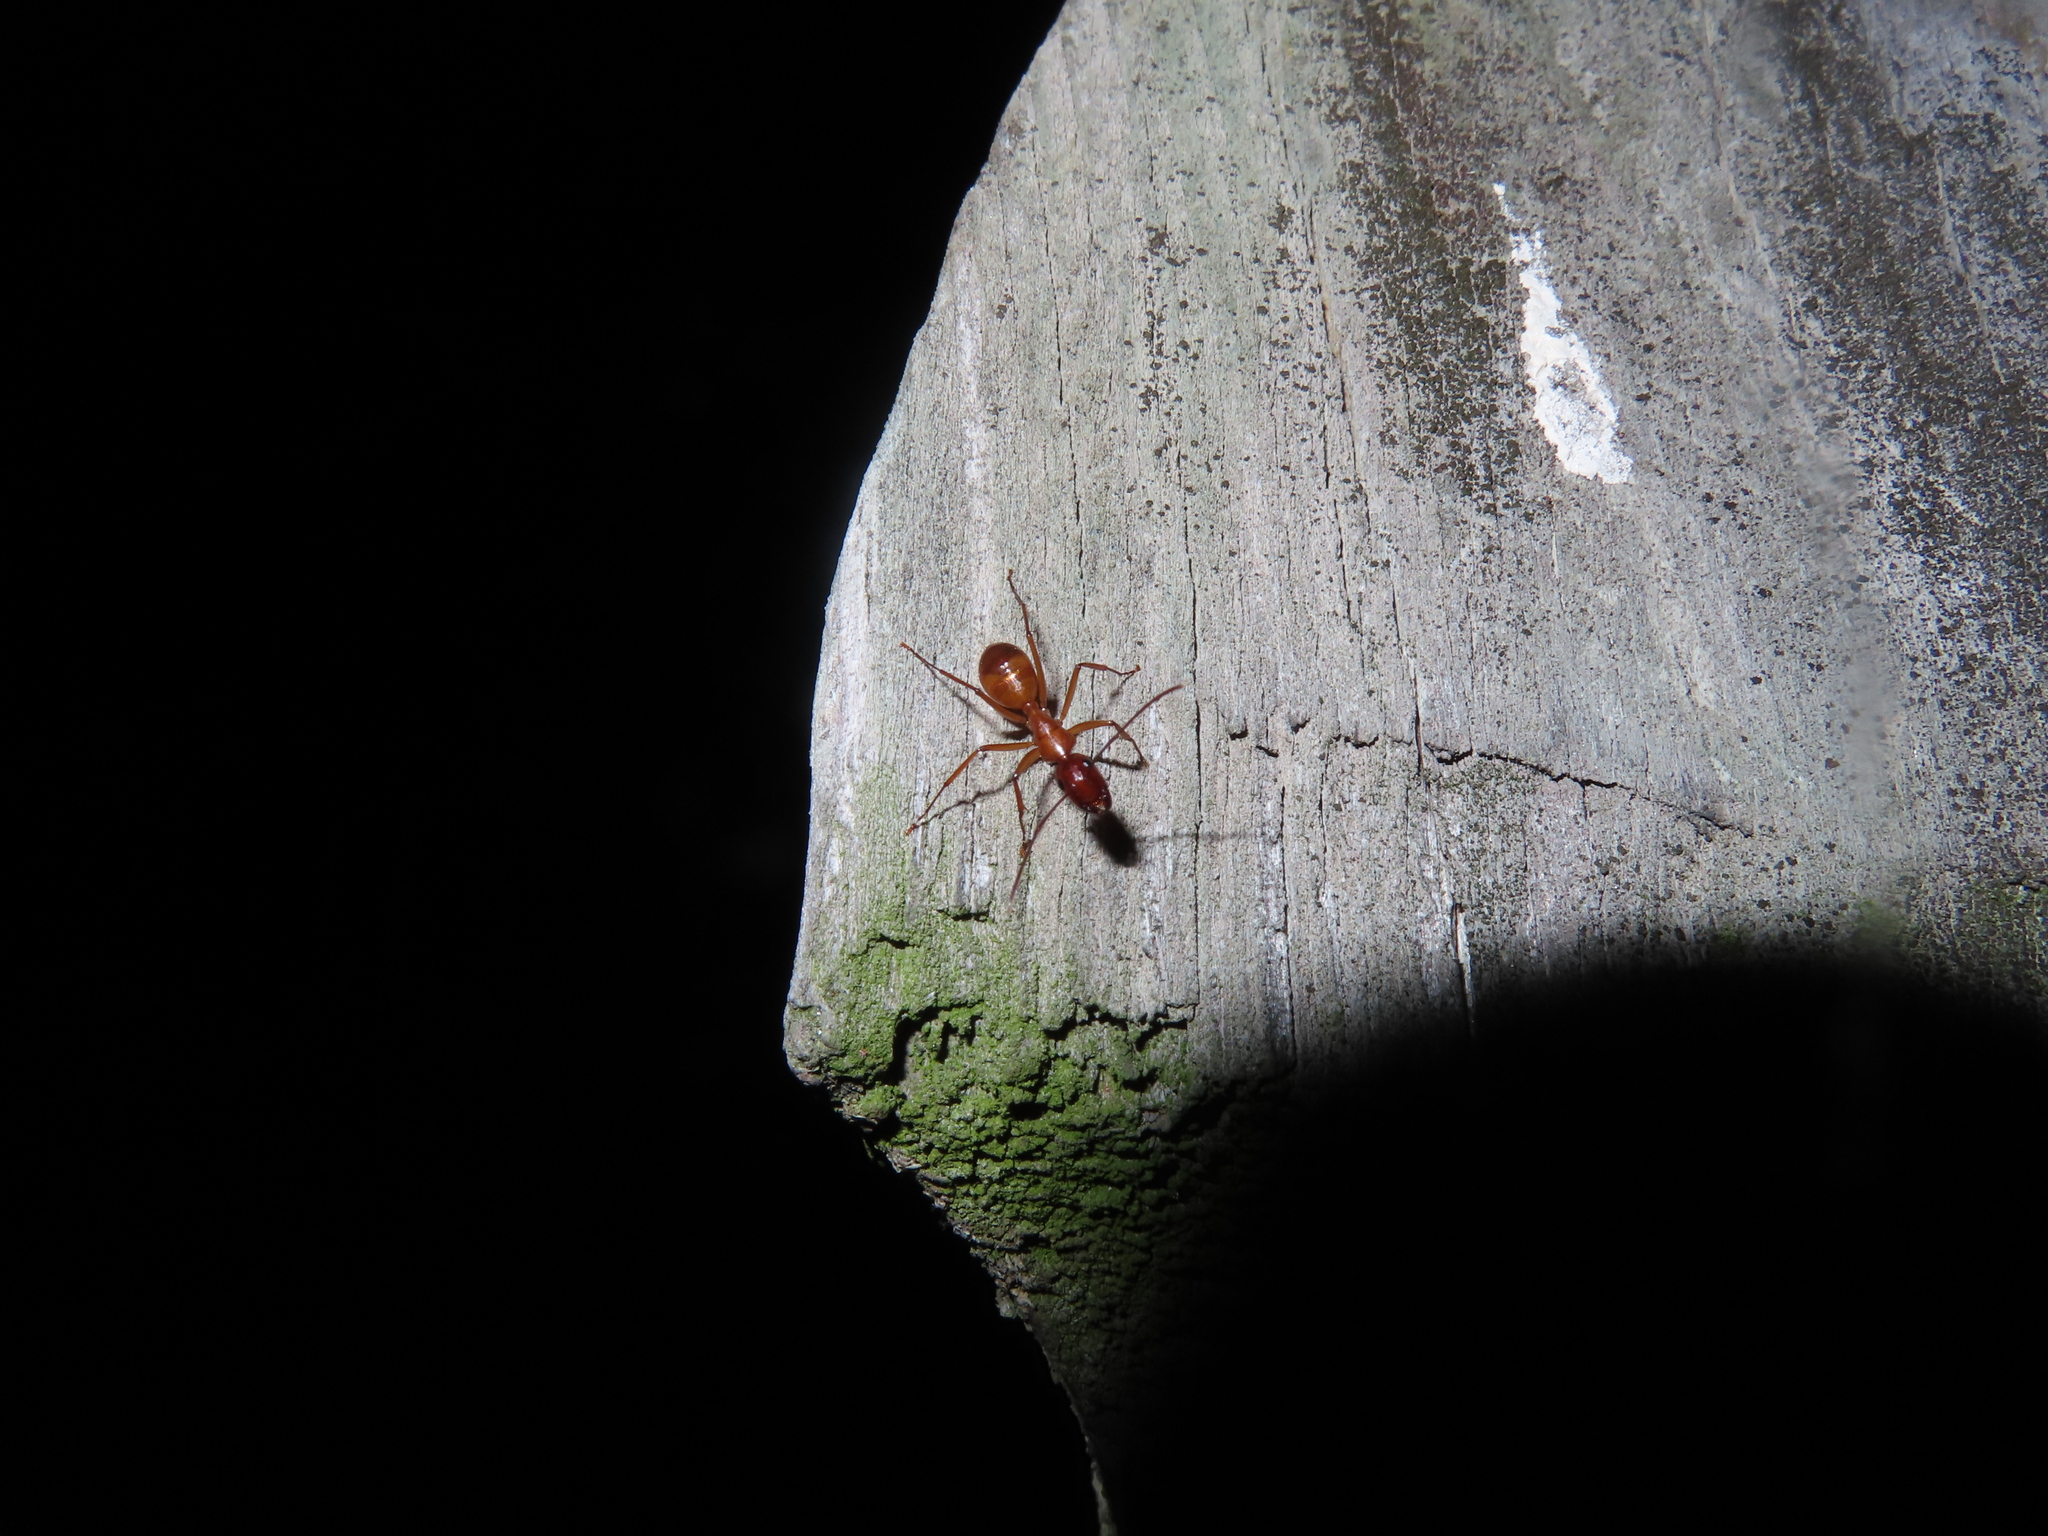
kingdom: Animalia
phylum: Arthropoda
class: Insecta
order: Hymenoptera
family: Formicidae
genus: Camponotus
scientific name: Camponotus castaneus
